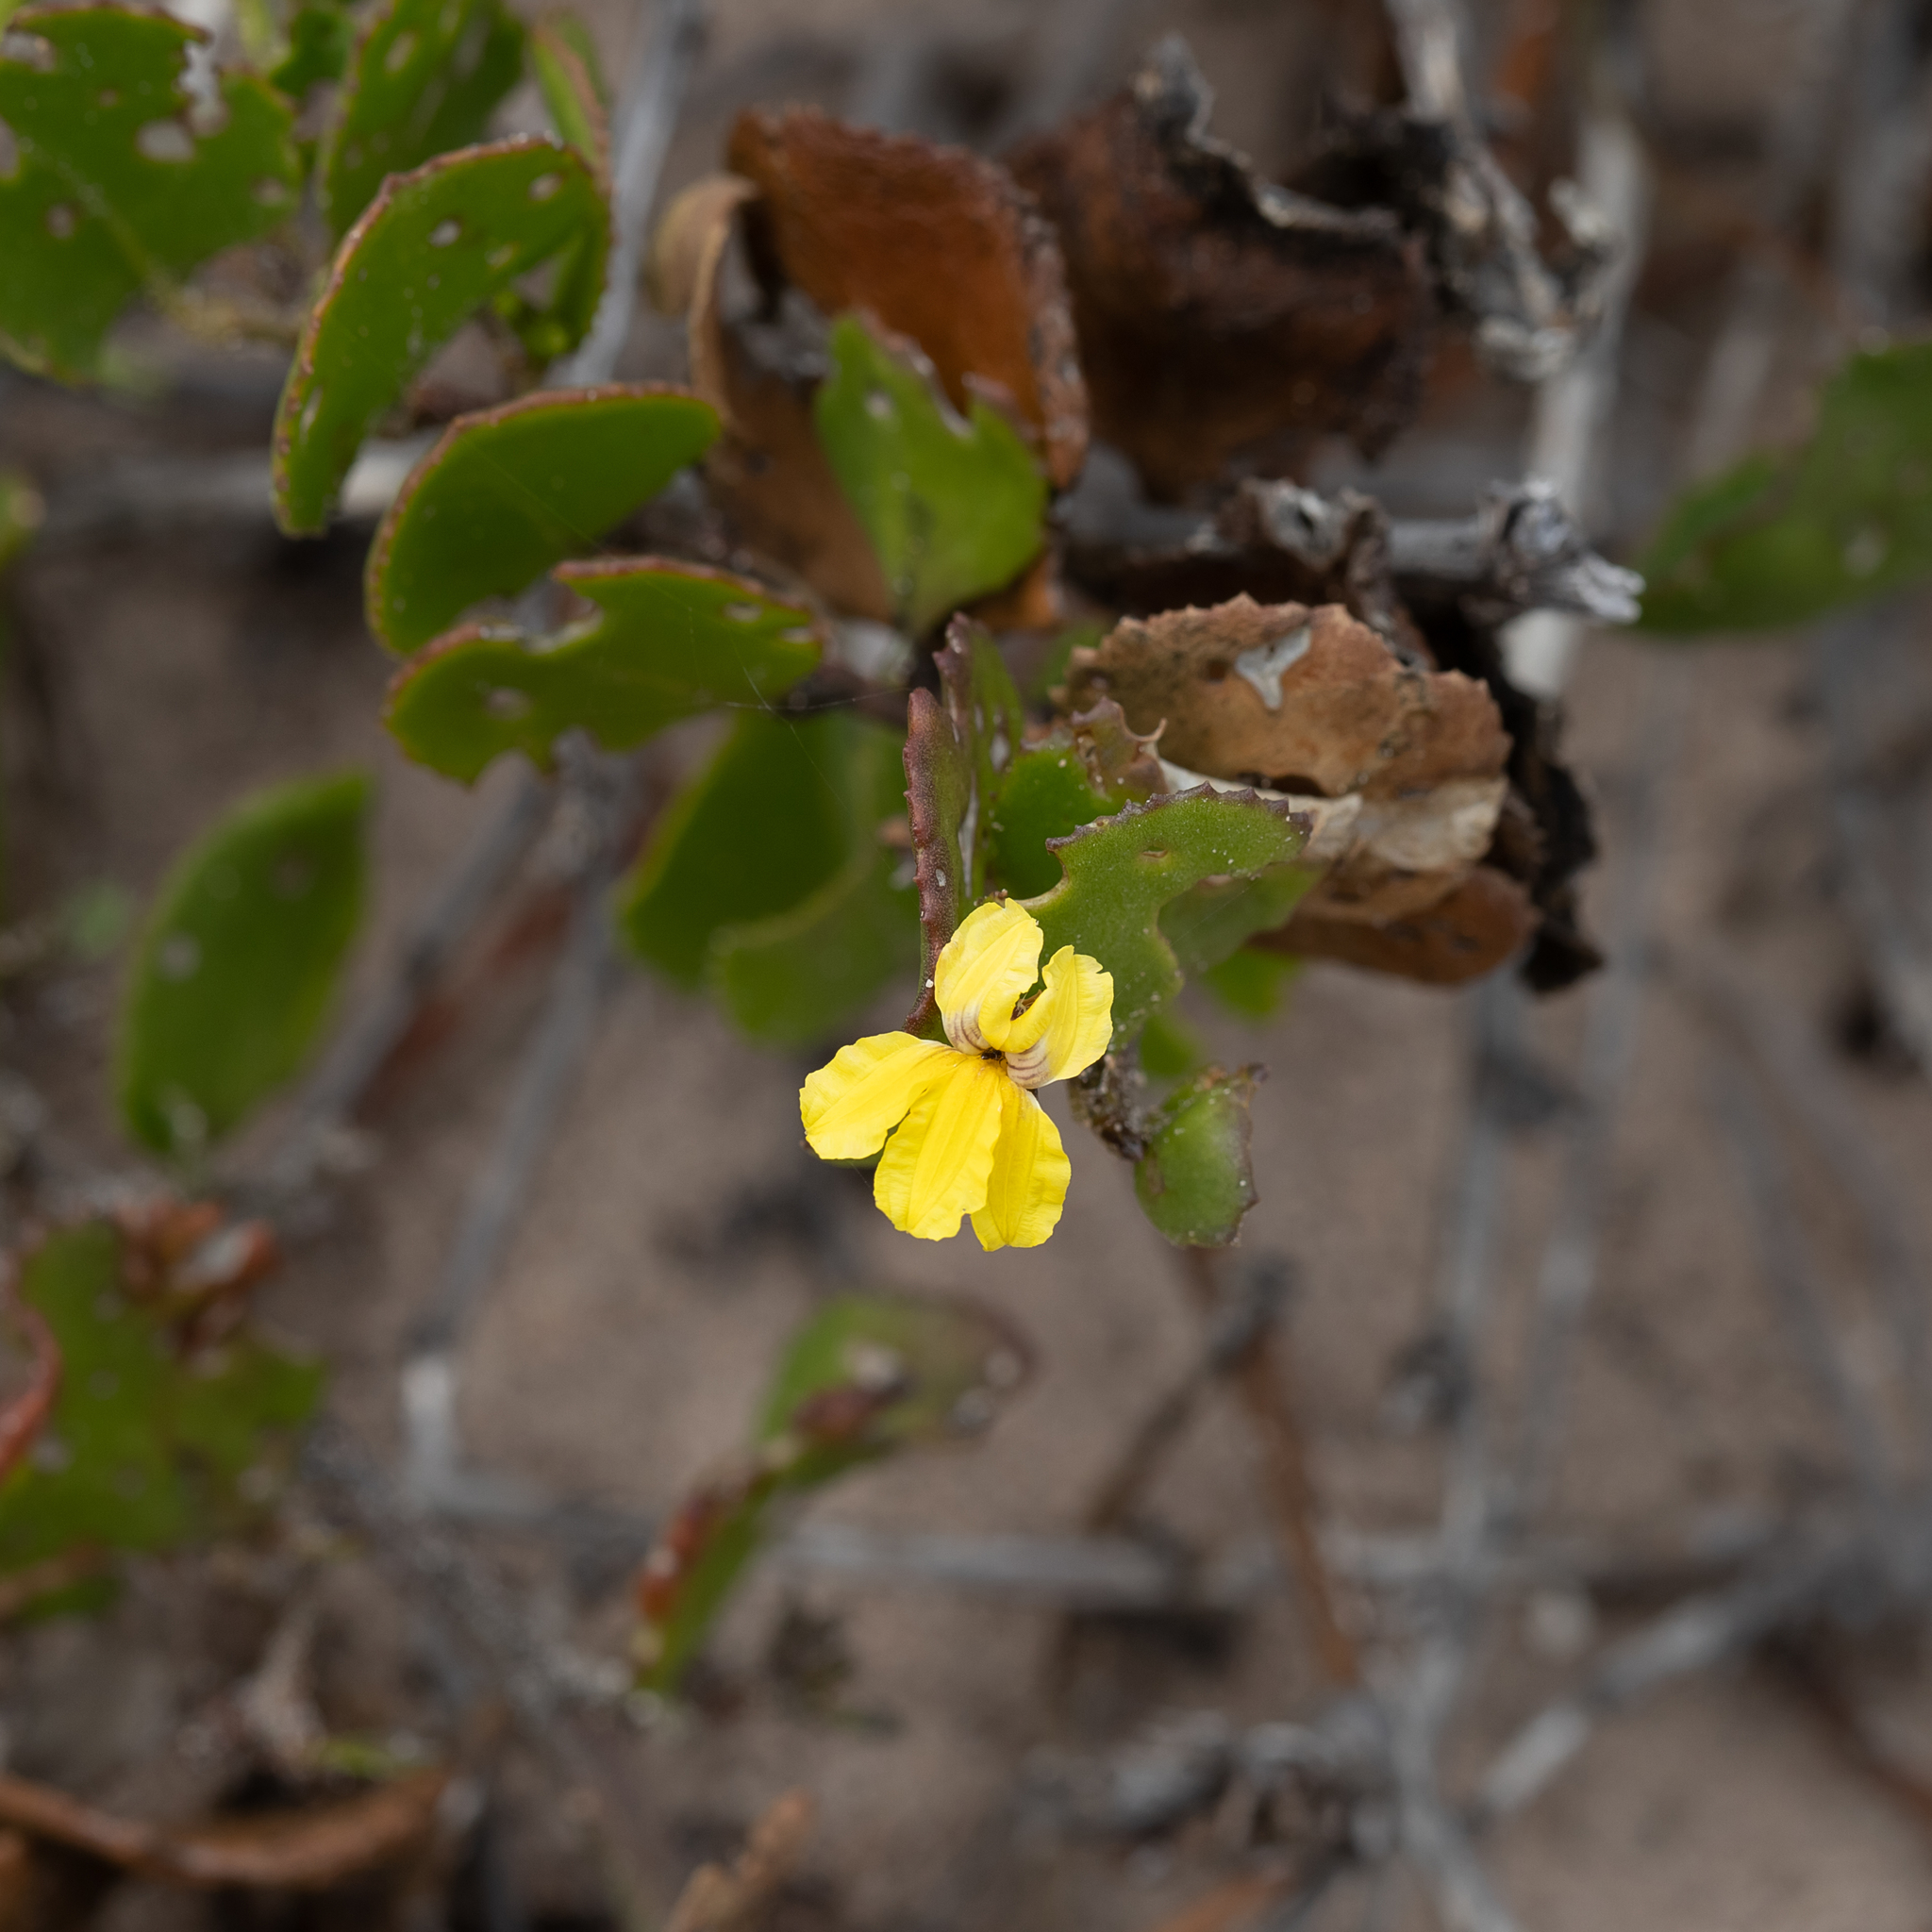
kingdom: Plantae
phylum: Tracheophyta
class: Magnoliopsida
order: Asterales
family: Goodeniaceae
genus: Goodenia
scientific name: Goodenia varia
